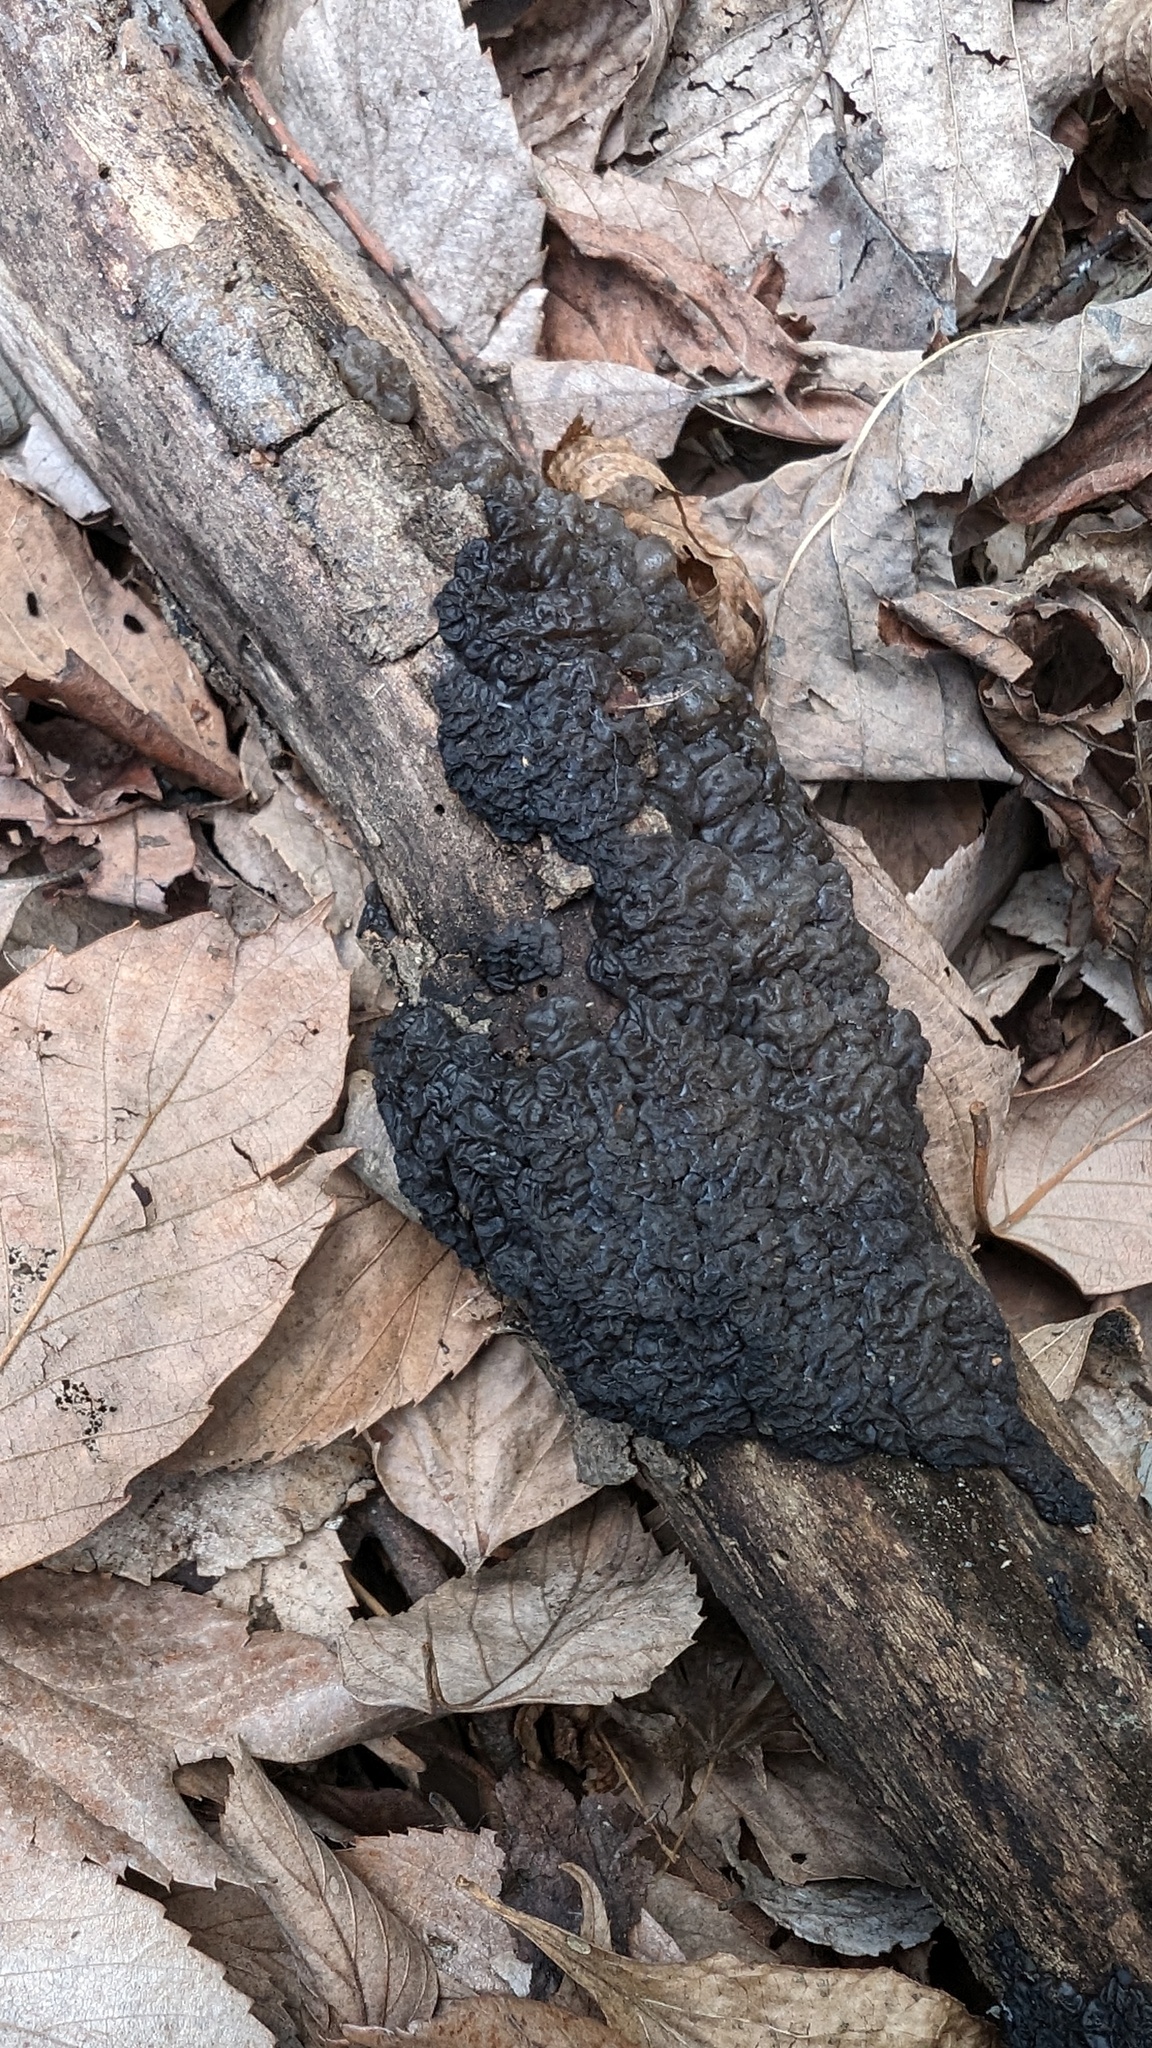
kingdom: Fungi
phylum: Basidiomycota
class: Agaricomycetes
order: Auriculariales
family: Auriculariaceae
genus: Exidia
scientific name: Exidia glandulosa
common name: Witches' butter
